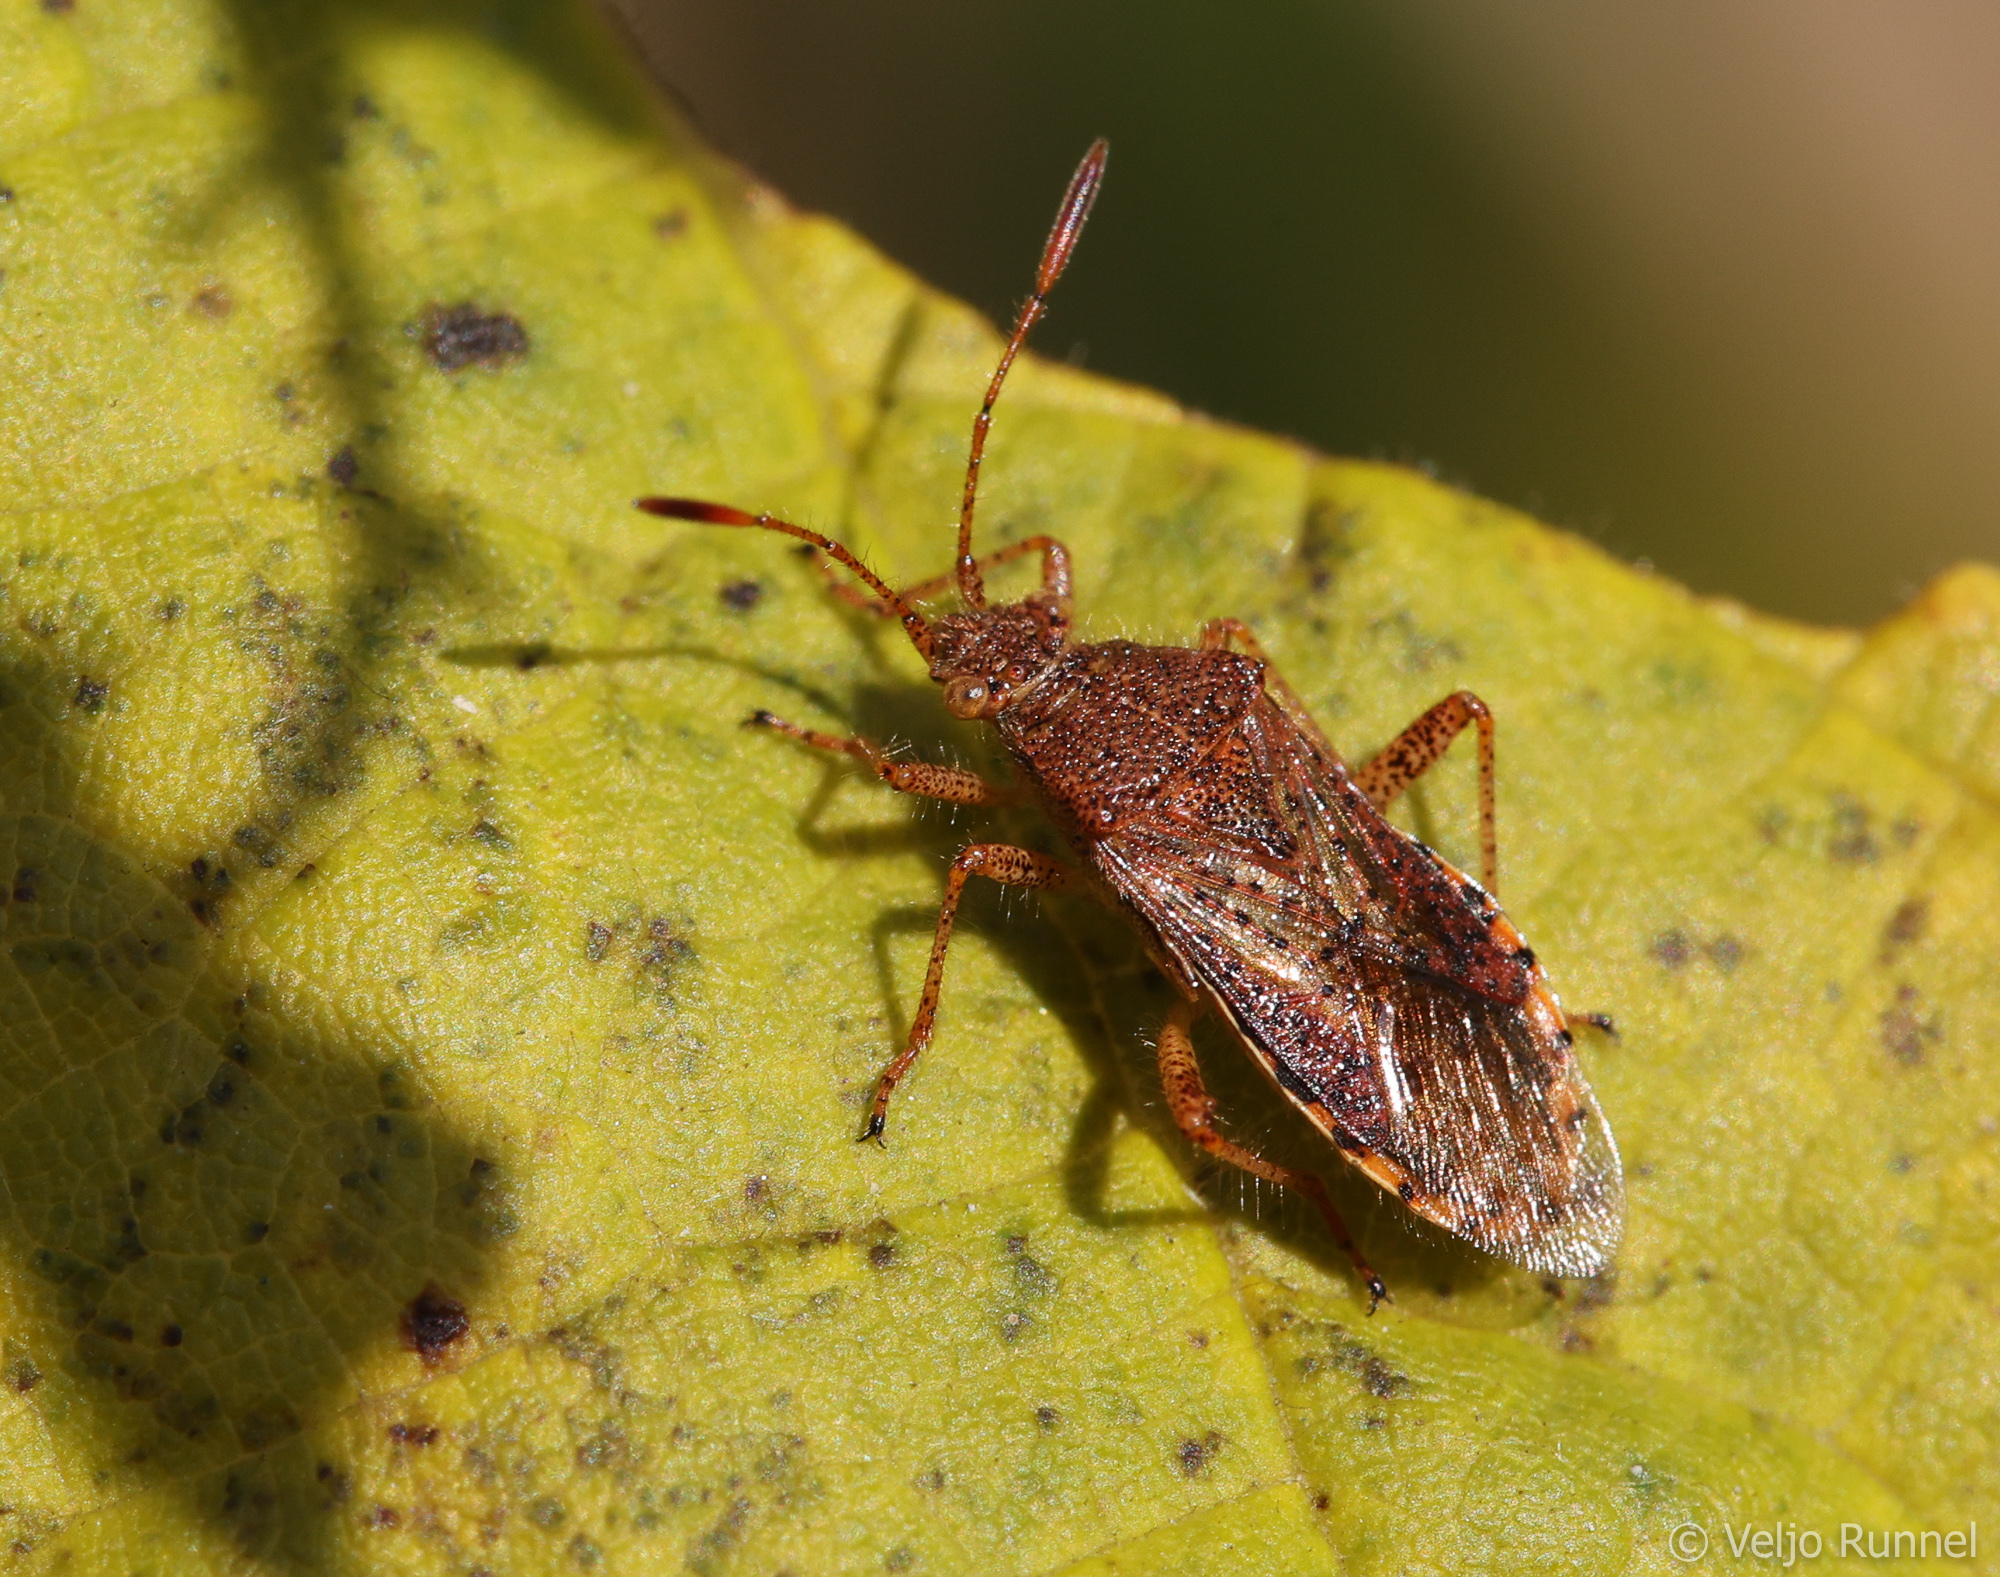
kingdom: Animalia
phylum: Arthropoda
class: Insecta
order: Hemiptera
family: Rhopalidae
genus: Rhopalus
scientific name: Rhopalus maculatus
